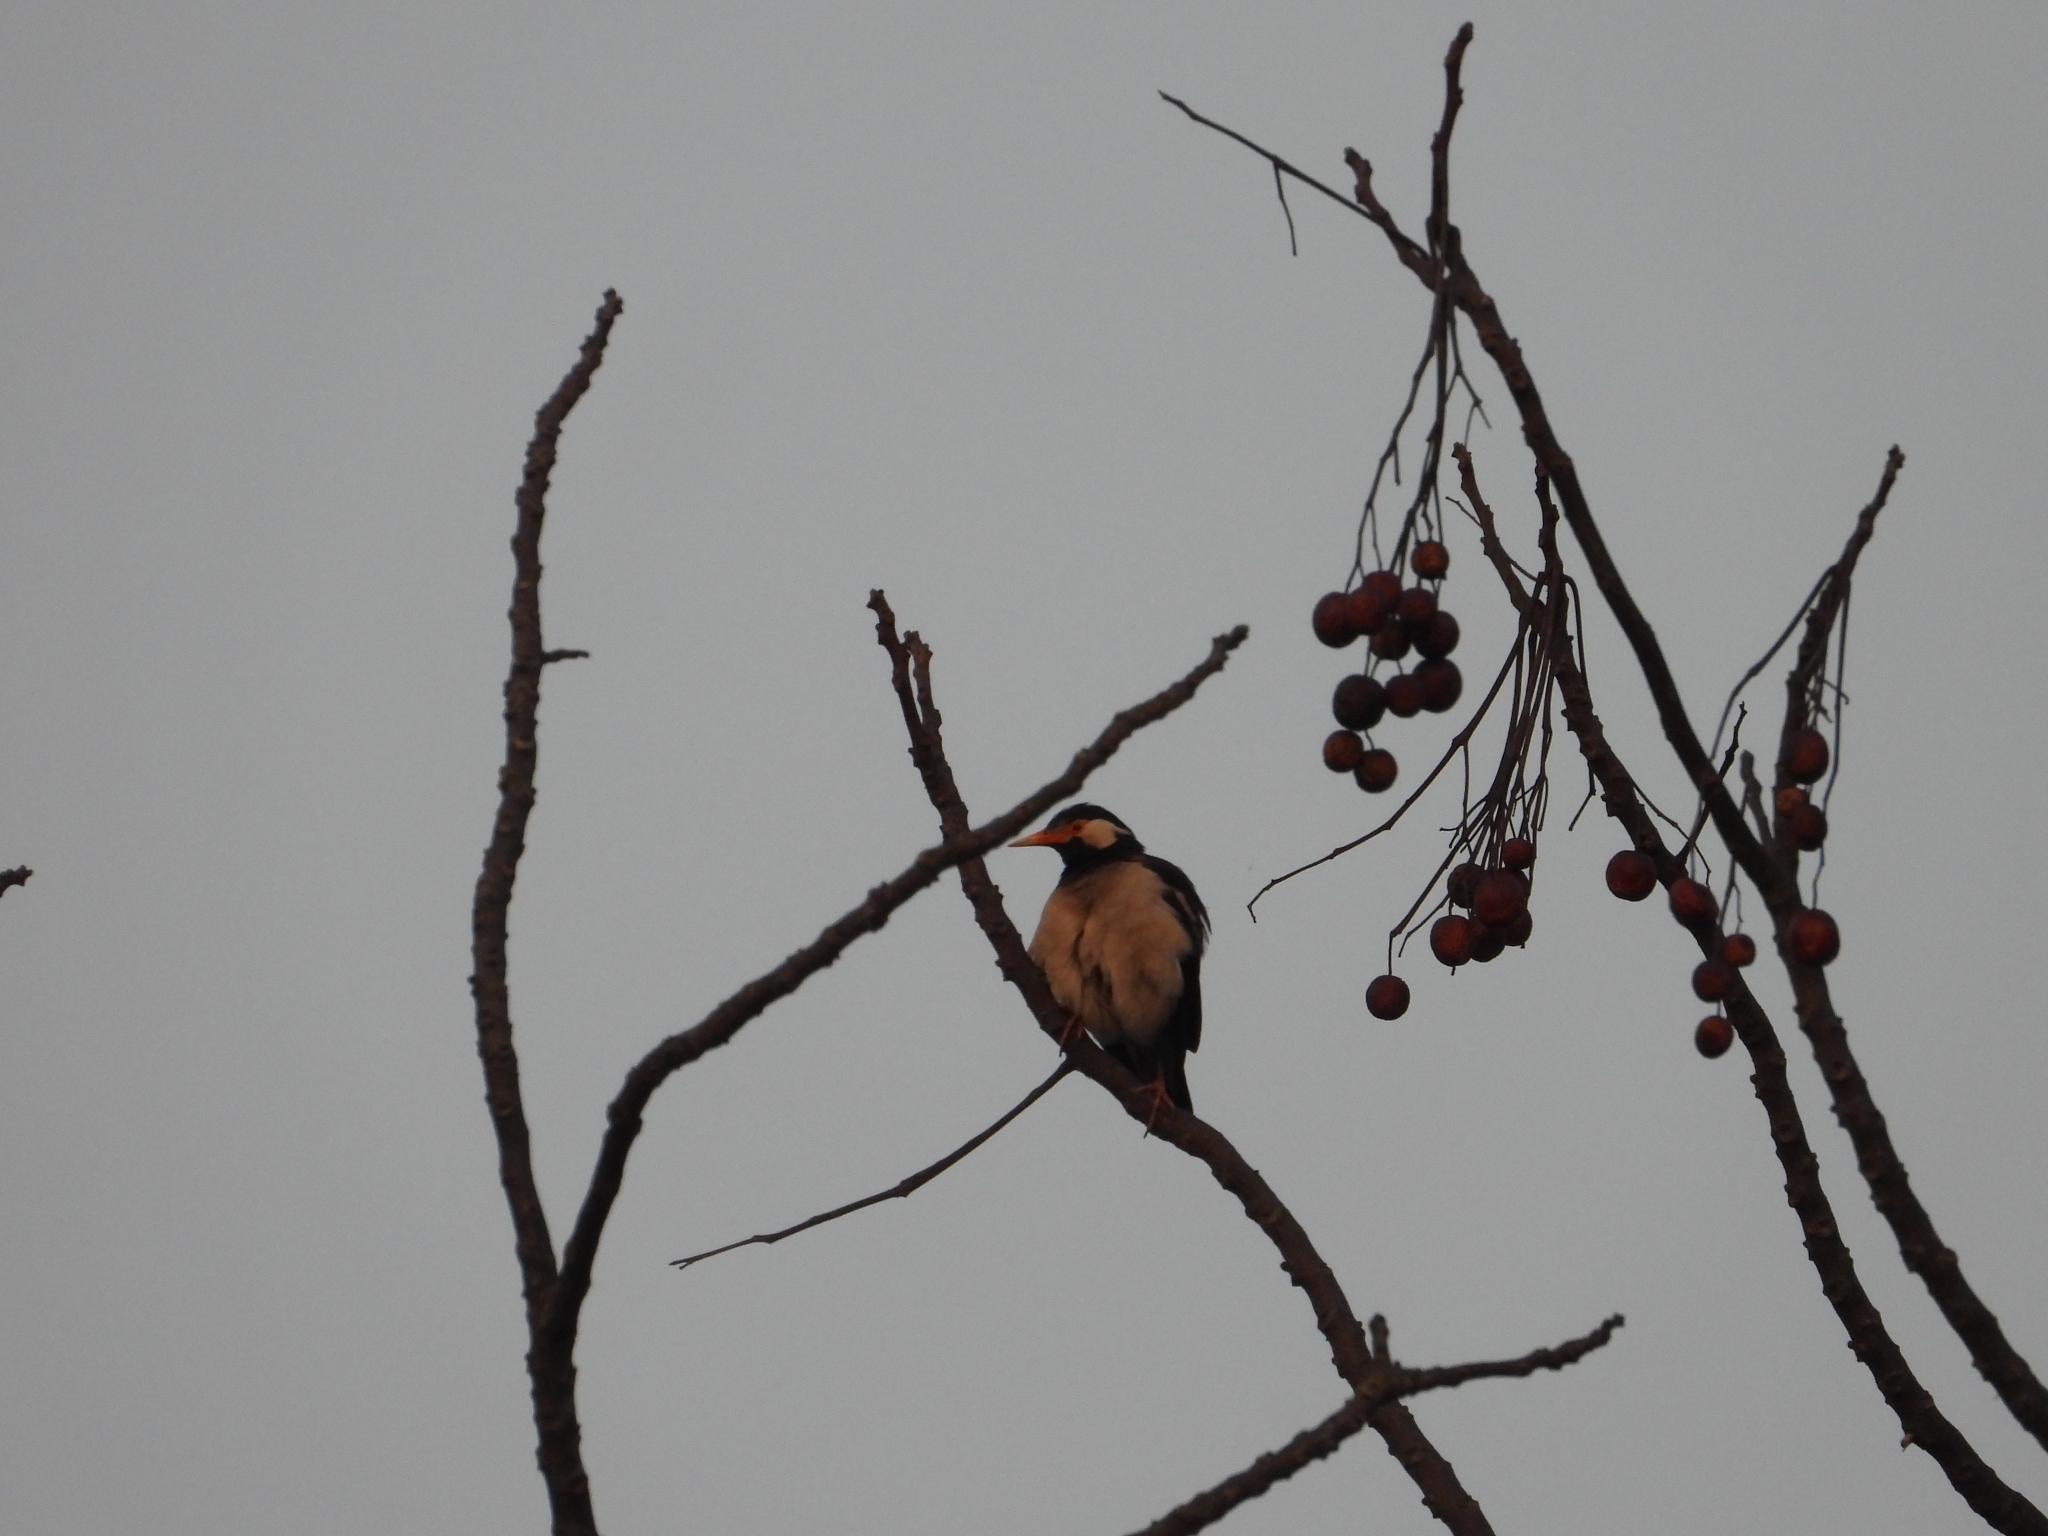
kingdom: Animalia
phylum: Chordata
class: Aves
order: Passeriformes
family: Sturnidae
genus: Gracupica
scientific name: Gracupica contra
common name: Pied myna
